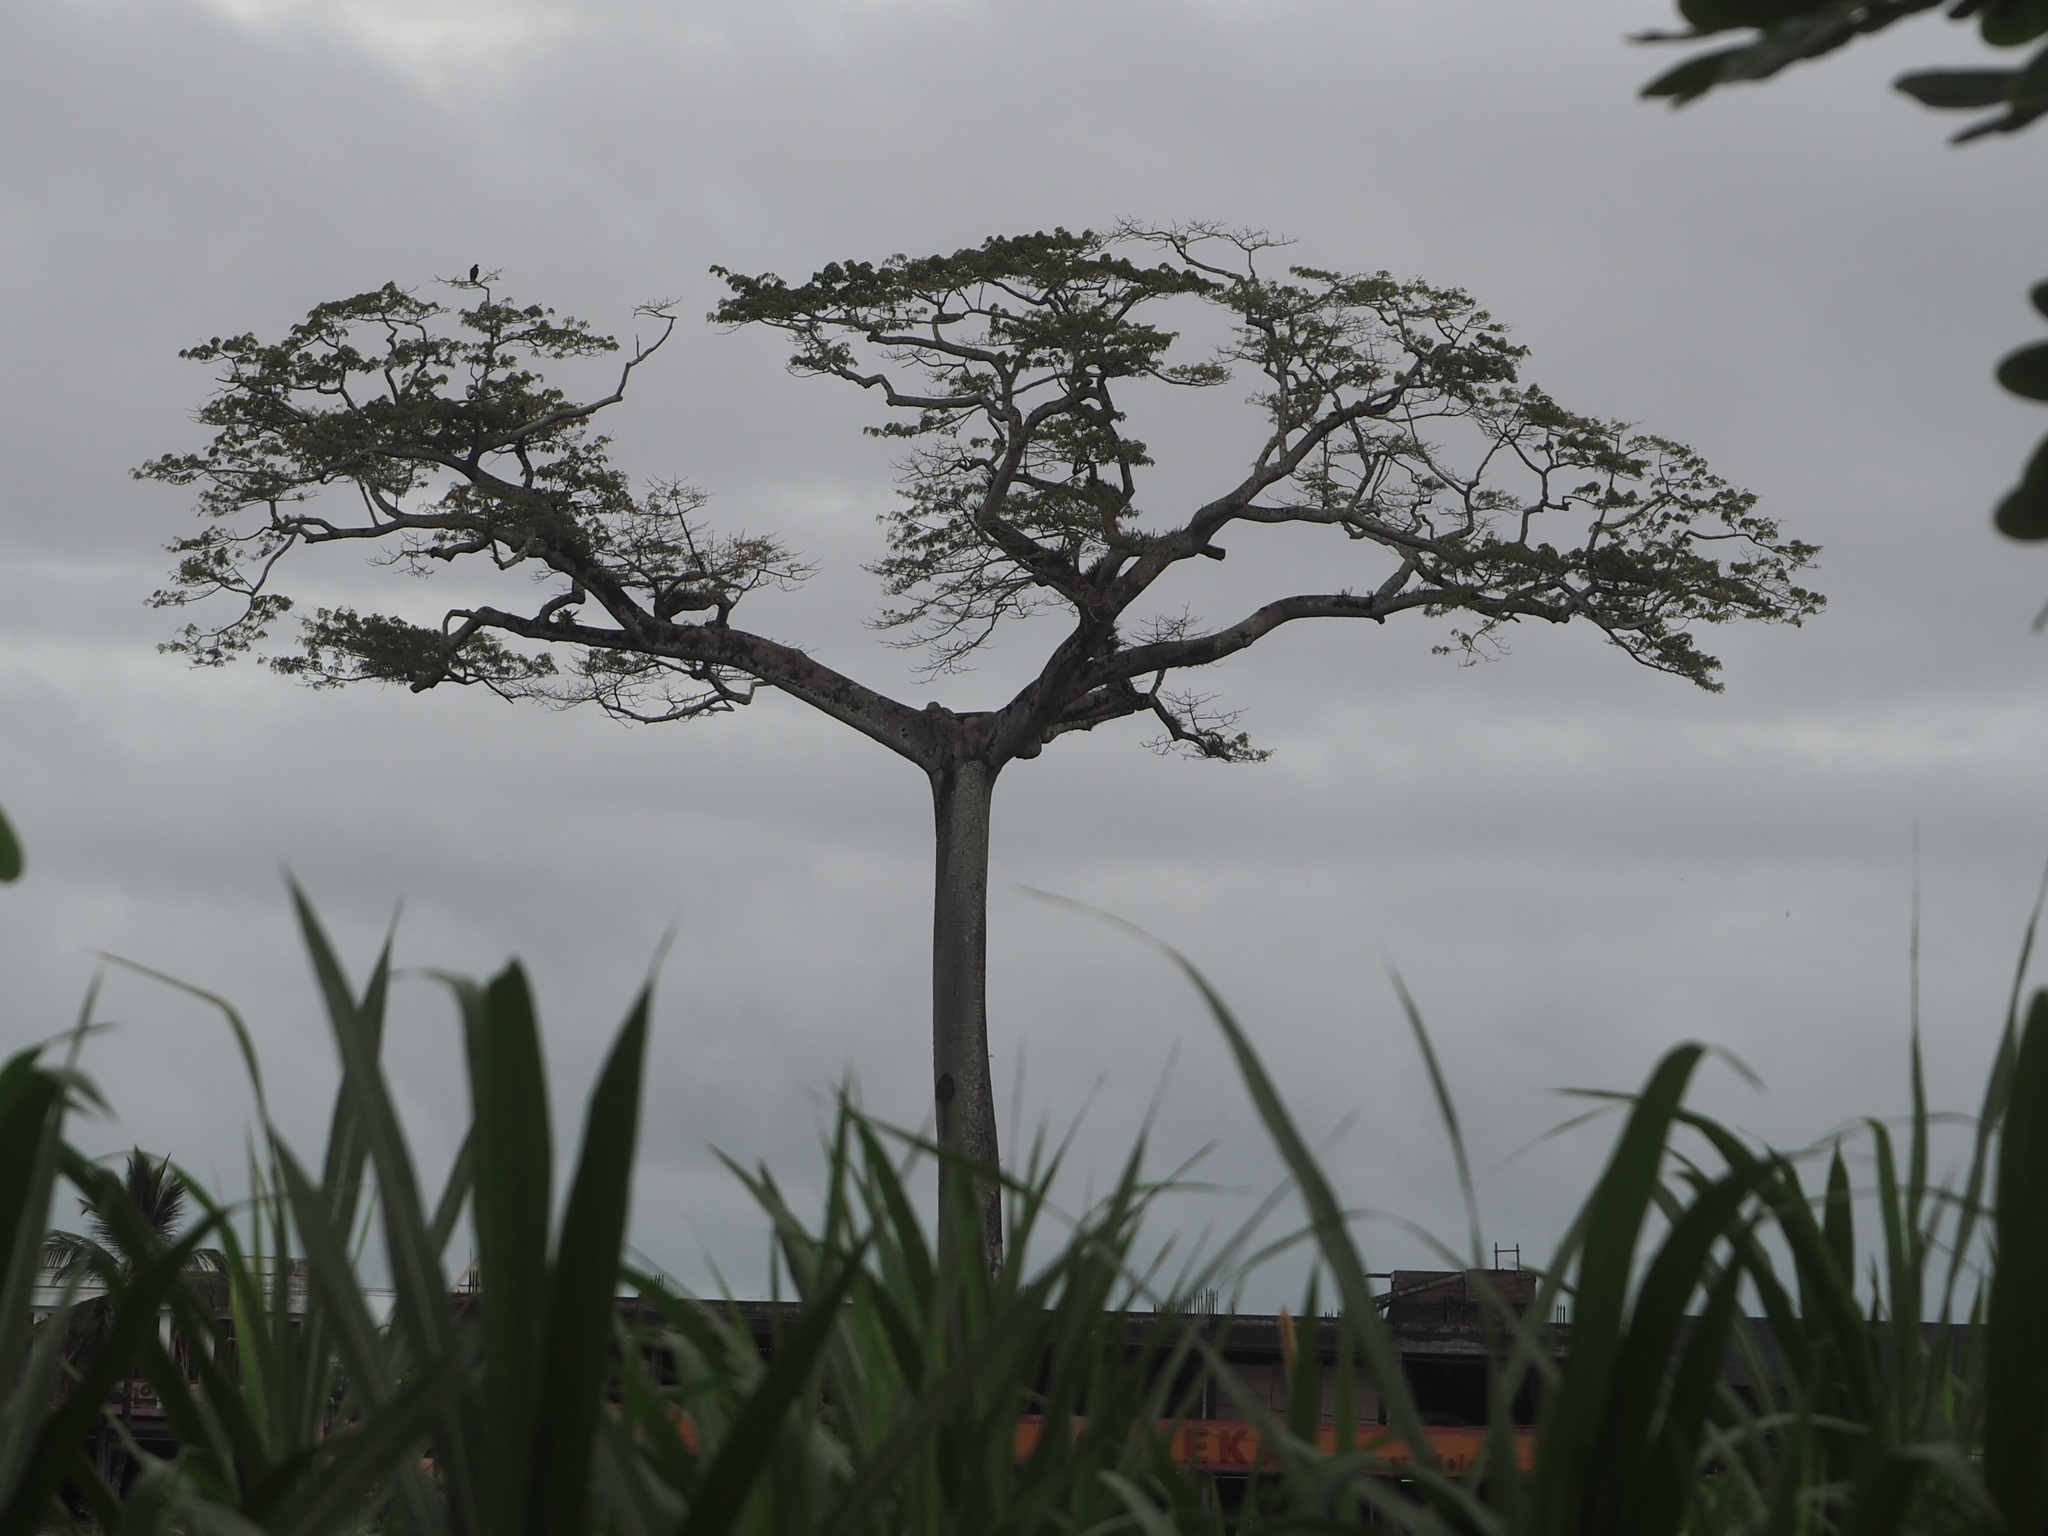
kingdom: Plantae
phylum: Tracheophyta
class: Magnoliopsida
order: Malvales
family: Malvaceae
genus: Ceiba
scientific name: Ceiba pentandra
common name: Kapok
